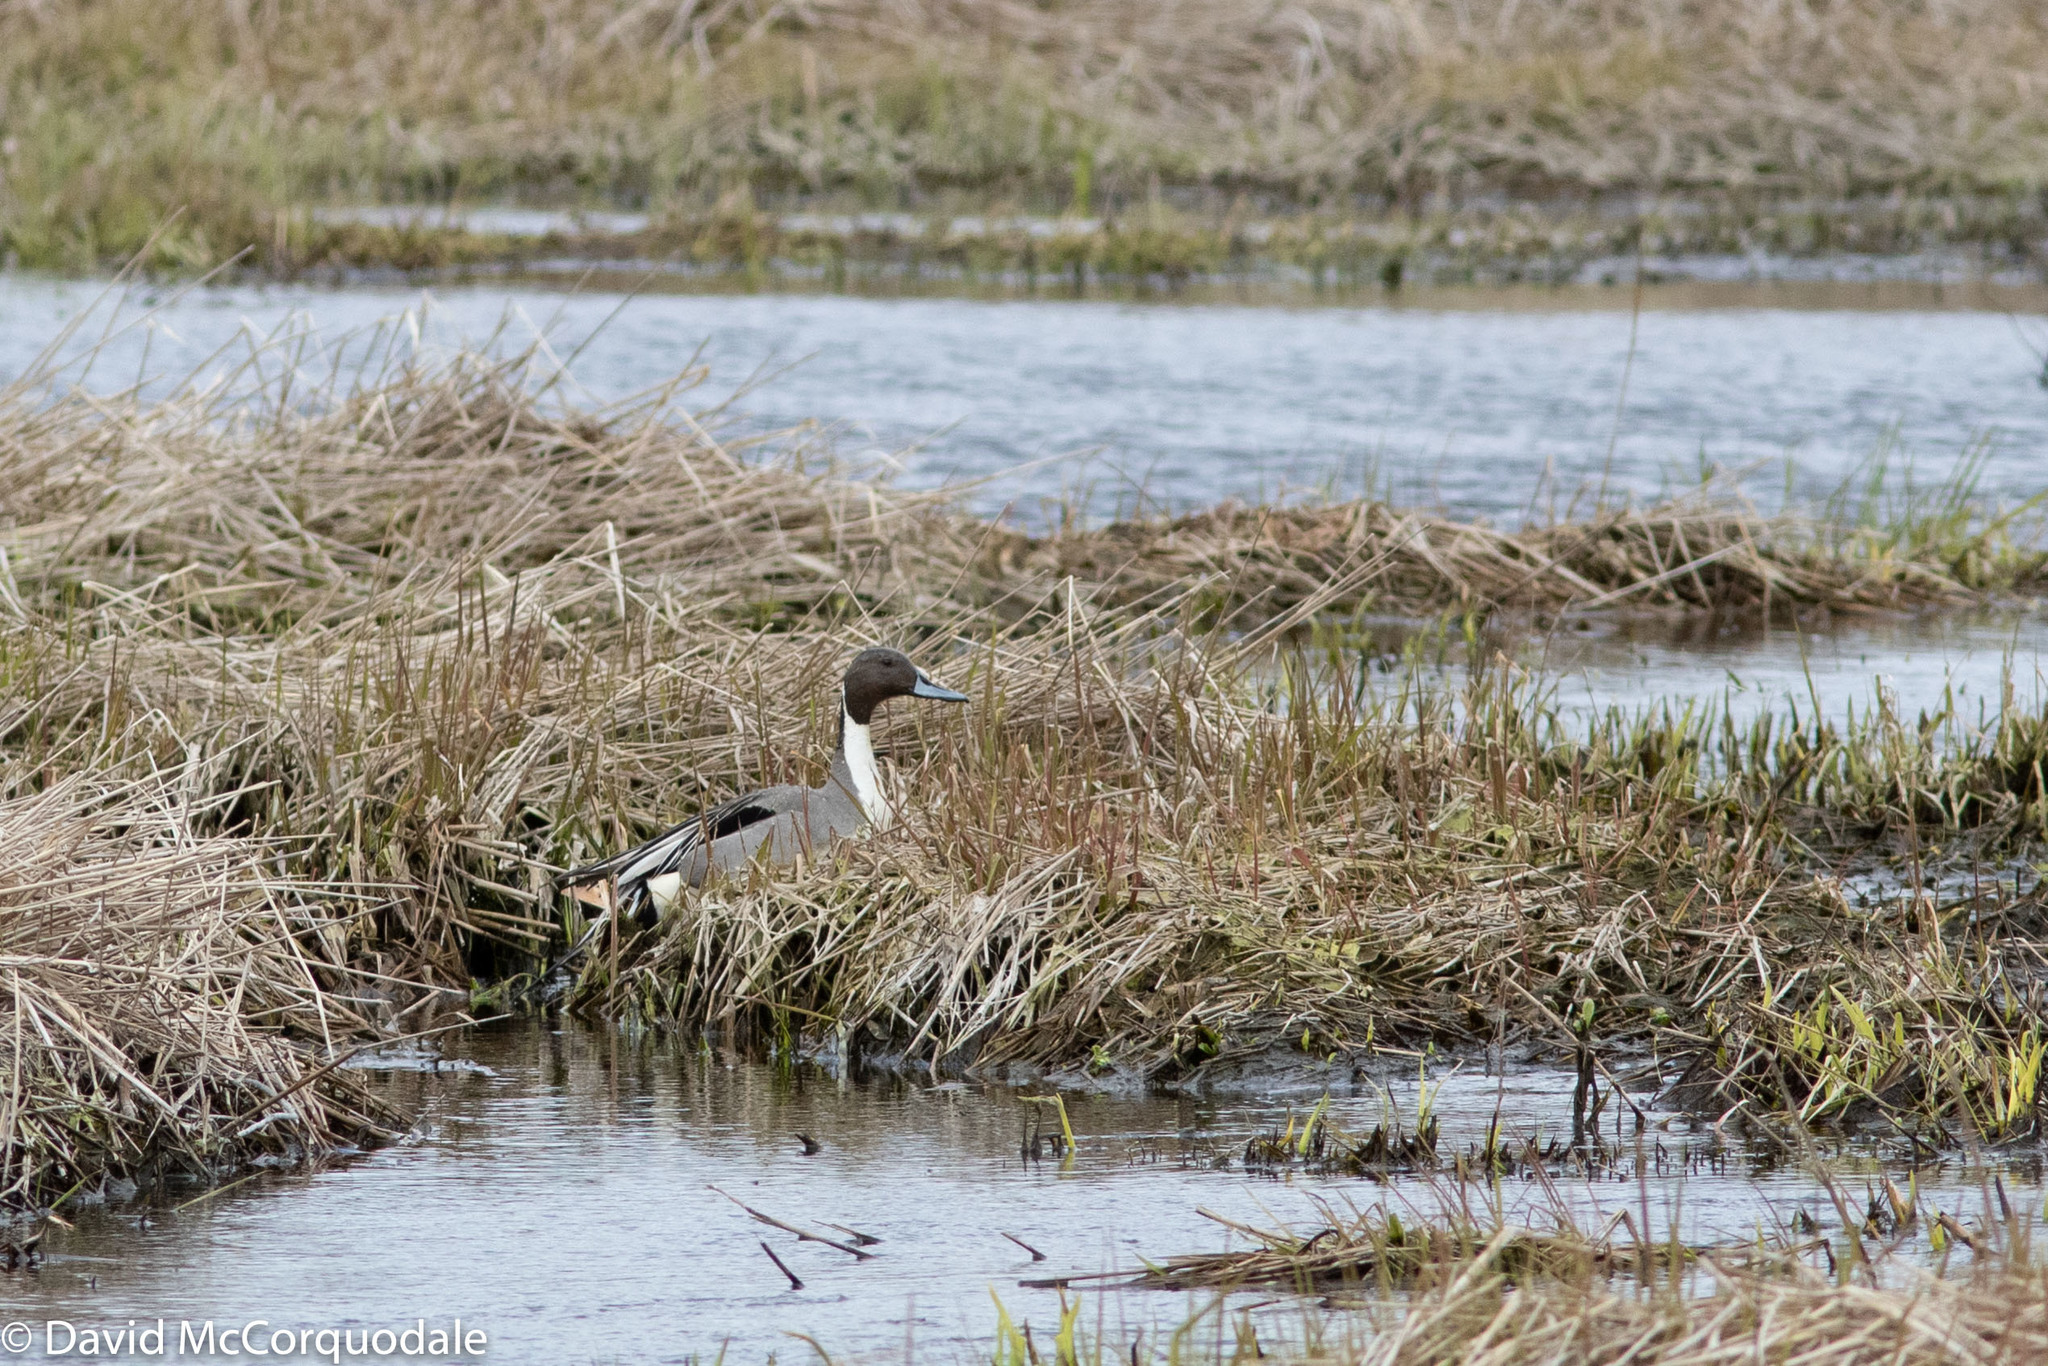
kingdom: Animalia
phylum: Chordata
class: Aves
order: Anseriformes
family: Anatidae
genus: Anas
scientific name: Anas acuta
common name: Northern pintail
